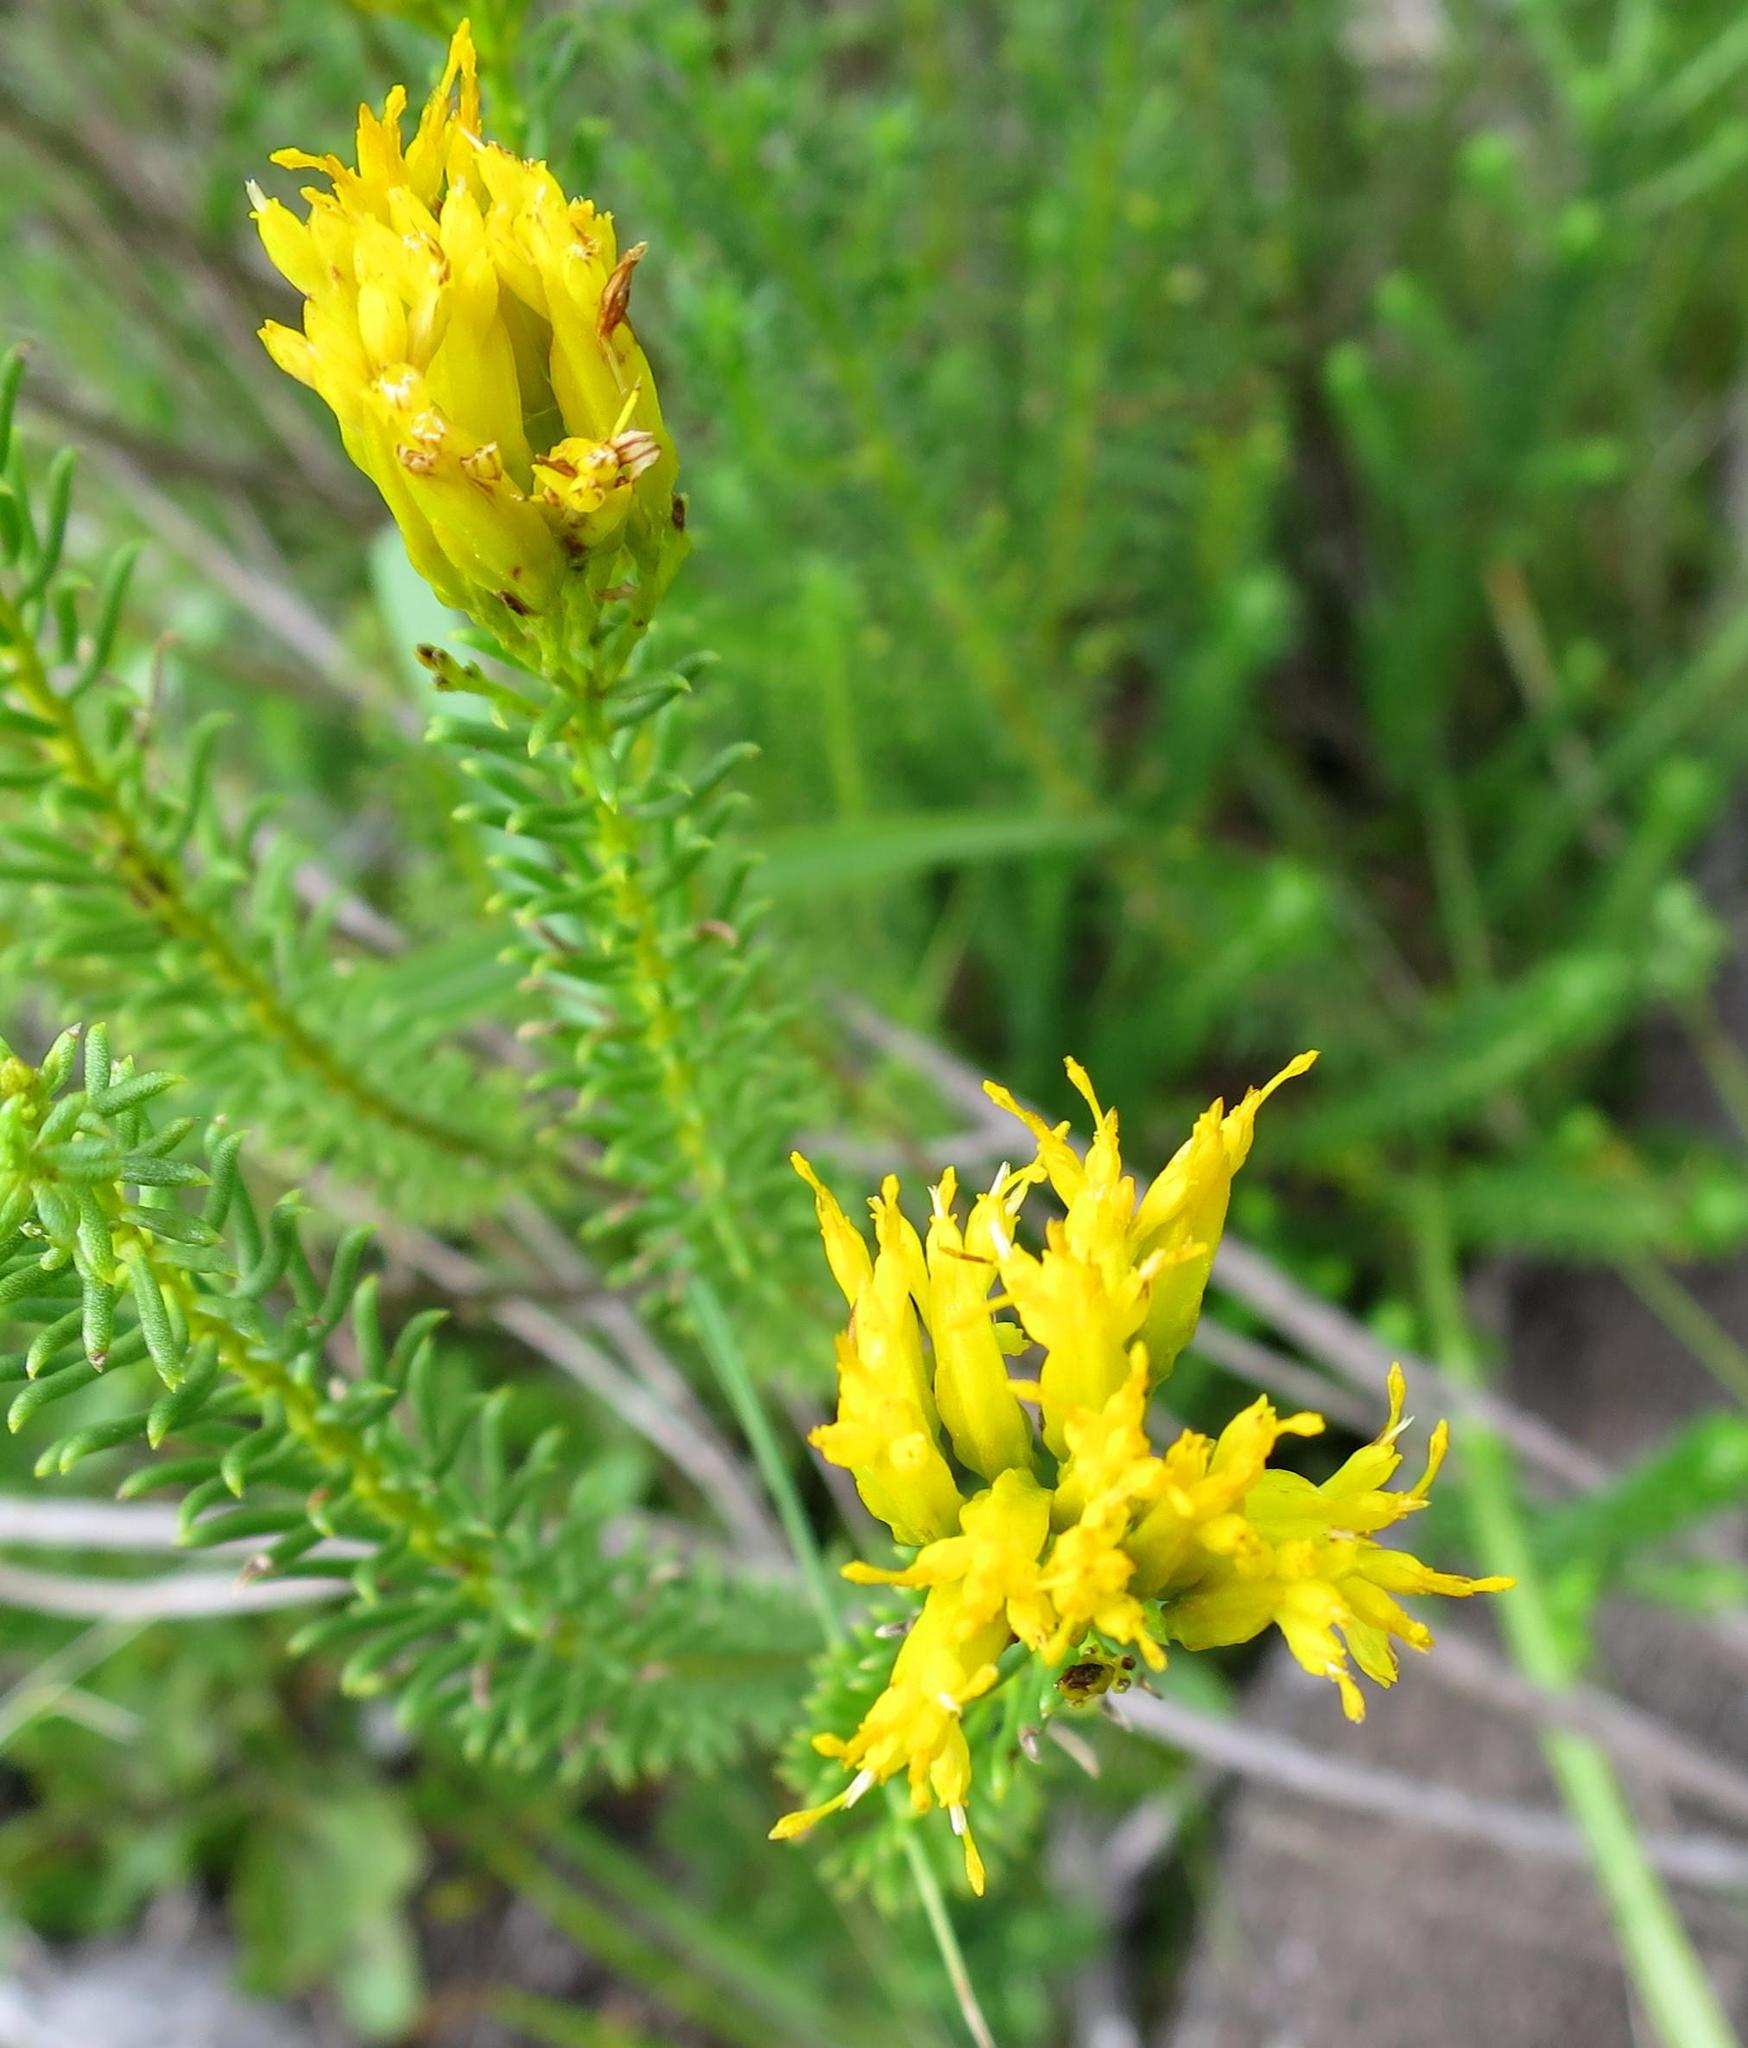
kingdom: Plantae
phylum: Tracheophyta
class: Magnoliopsida
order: Asterales
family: Asteraceae
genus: Pteronia
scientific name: Pteronia uncinata
